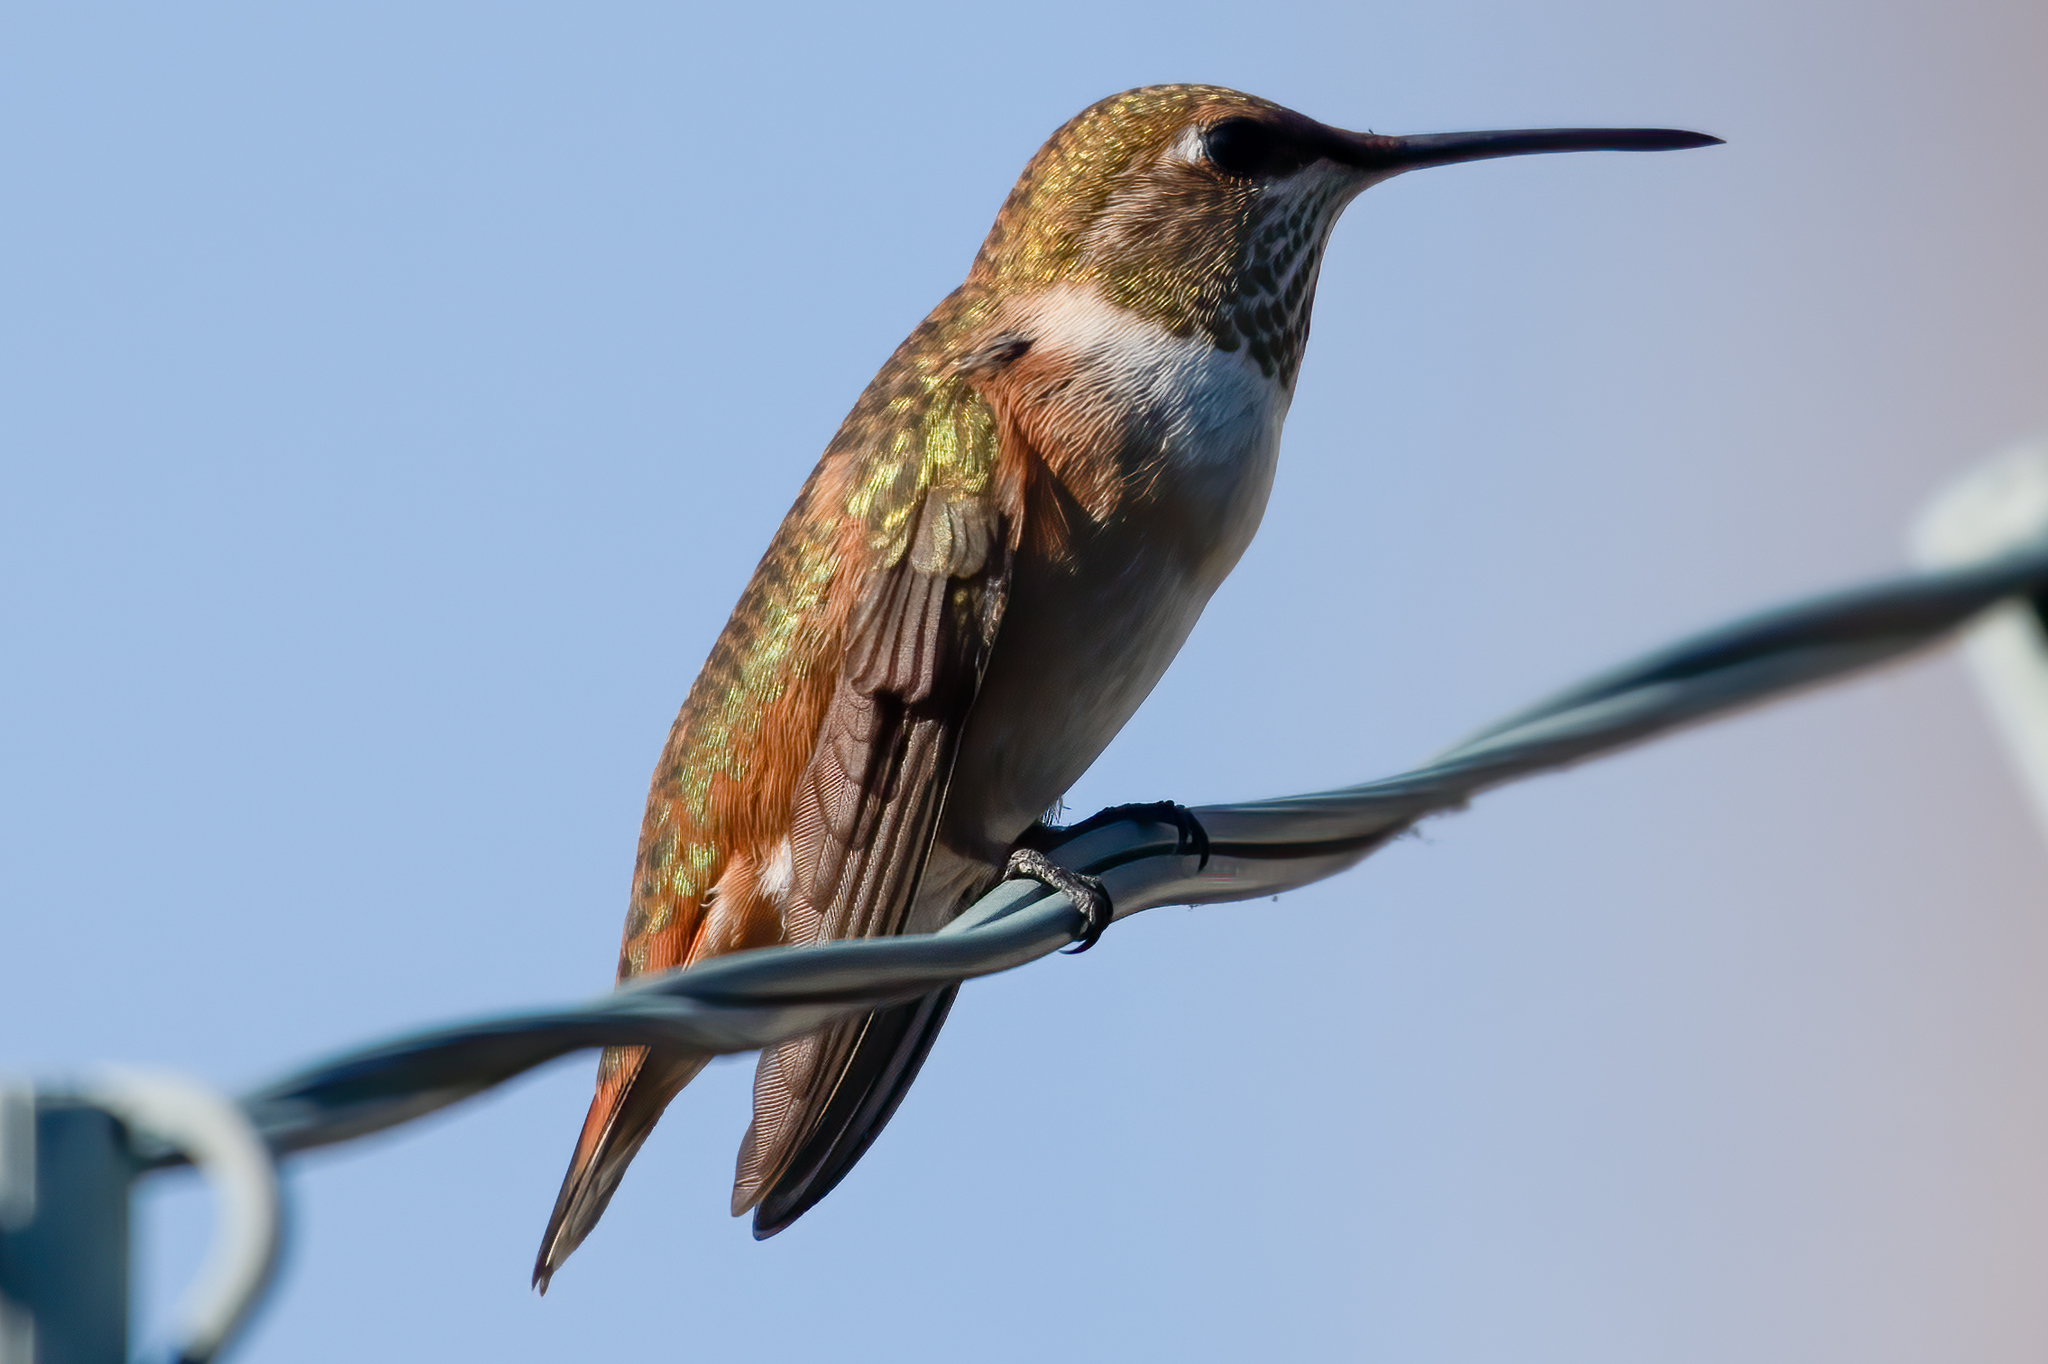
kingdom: Animalia
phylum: Chordata
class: Aves
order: Apodiformes
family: Trochilidae
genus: Selasphorus
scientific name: Selasphorus
